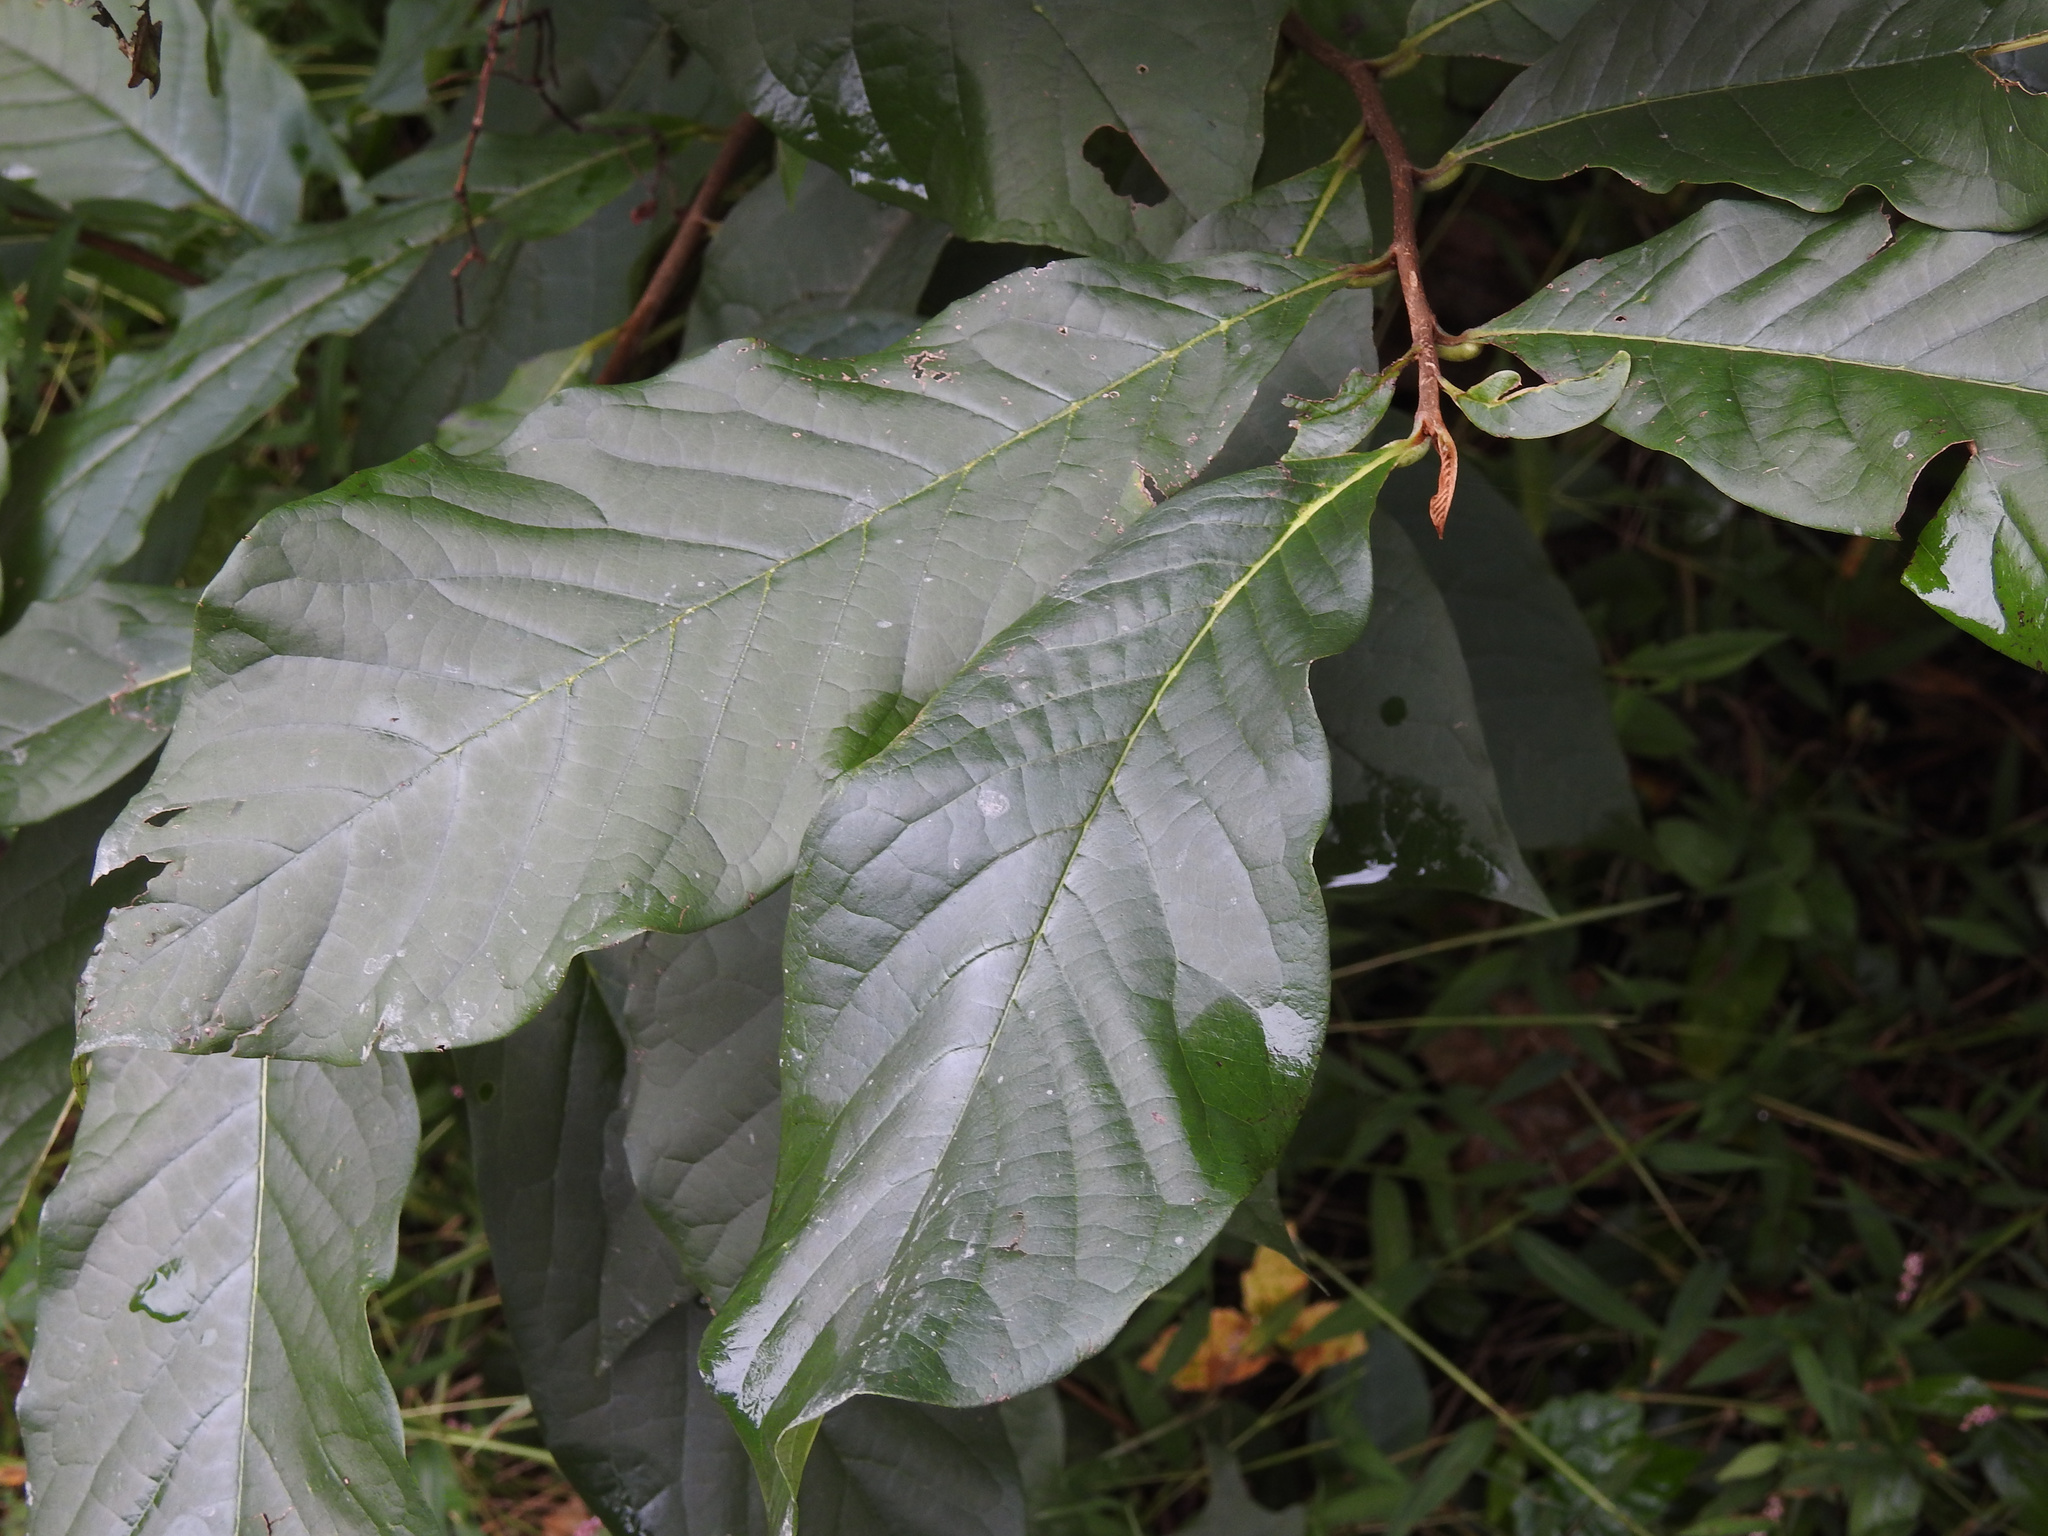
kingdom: Plantae
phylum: Tracheophyta
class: Magnoliopsida
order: Magnoliales
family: Annonaceae
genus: Asimina
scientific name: Asimina triloba
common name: Dog-banana
